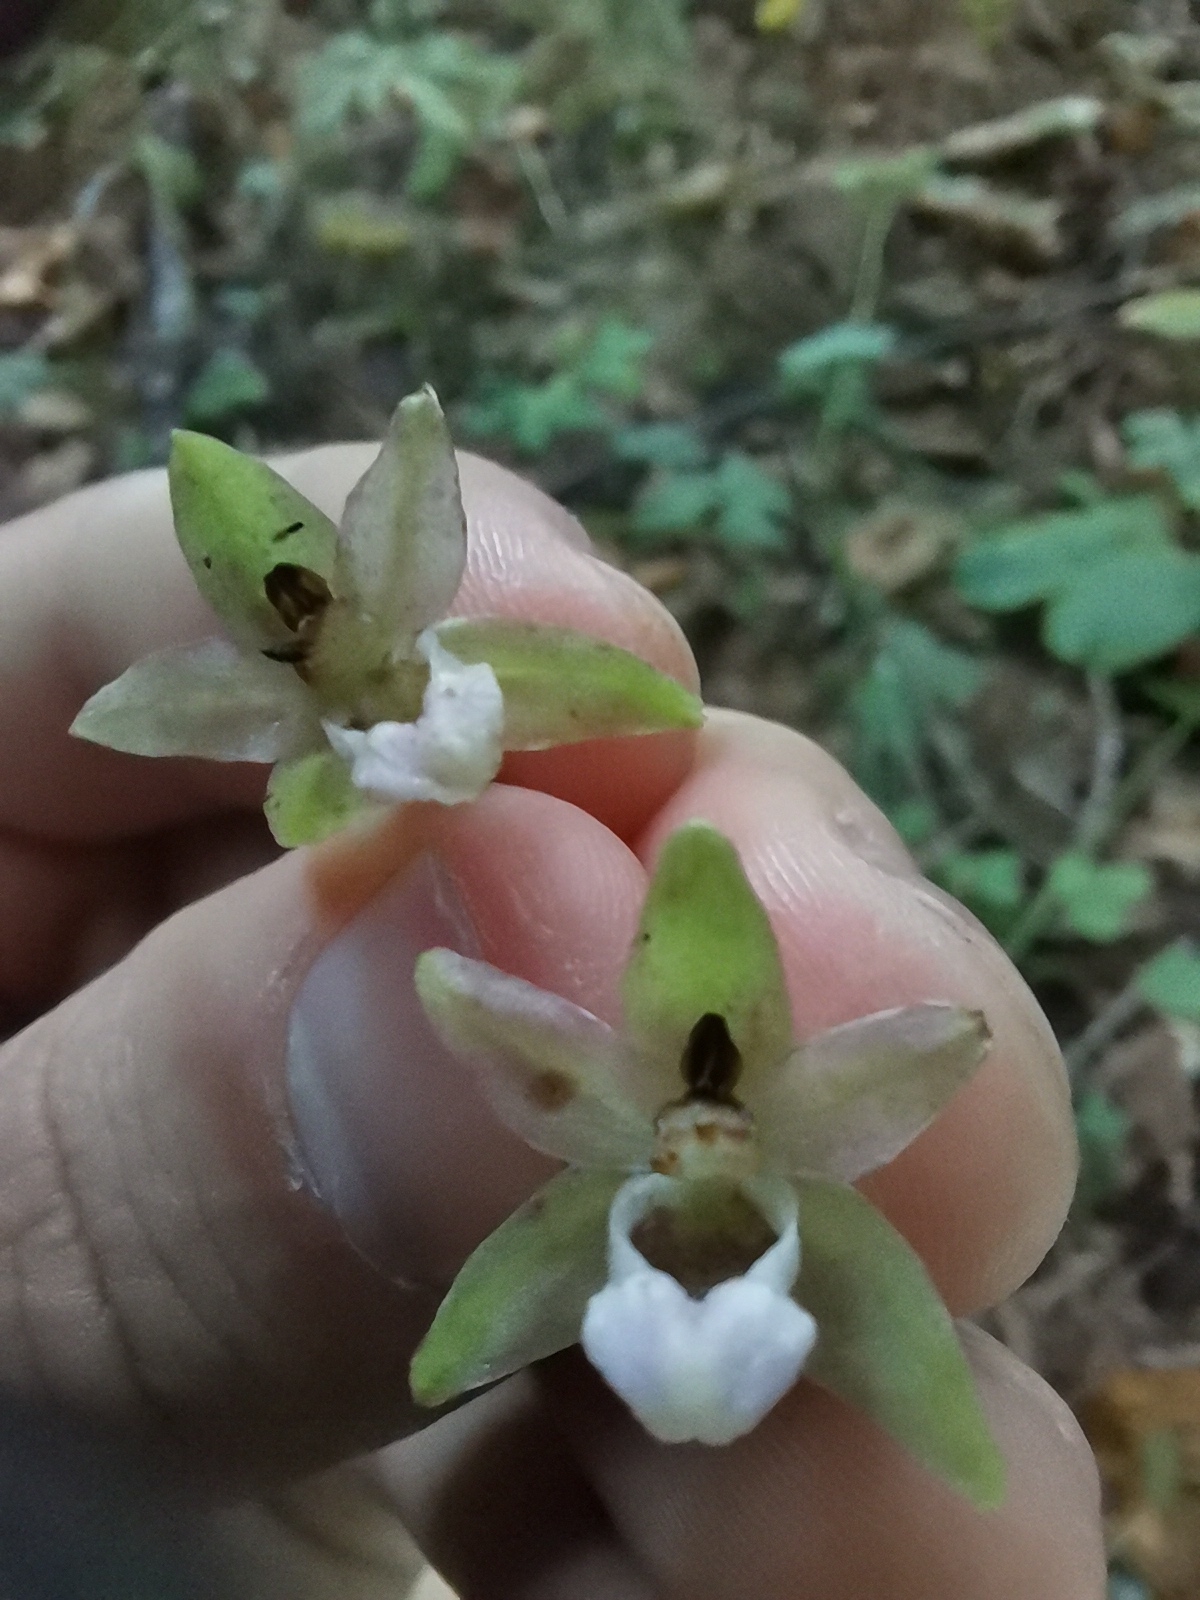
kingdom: Plantae
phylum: Tracheophyta
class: Liliopsida
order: Asparagales
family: Orchidaceae
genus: Epipactis
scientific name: Epipactis helleborine
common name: Broad-leaved helleborine
